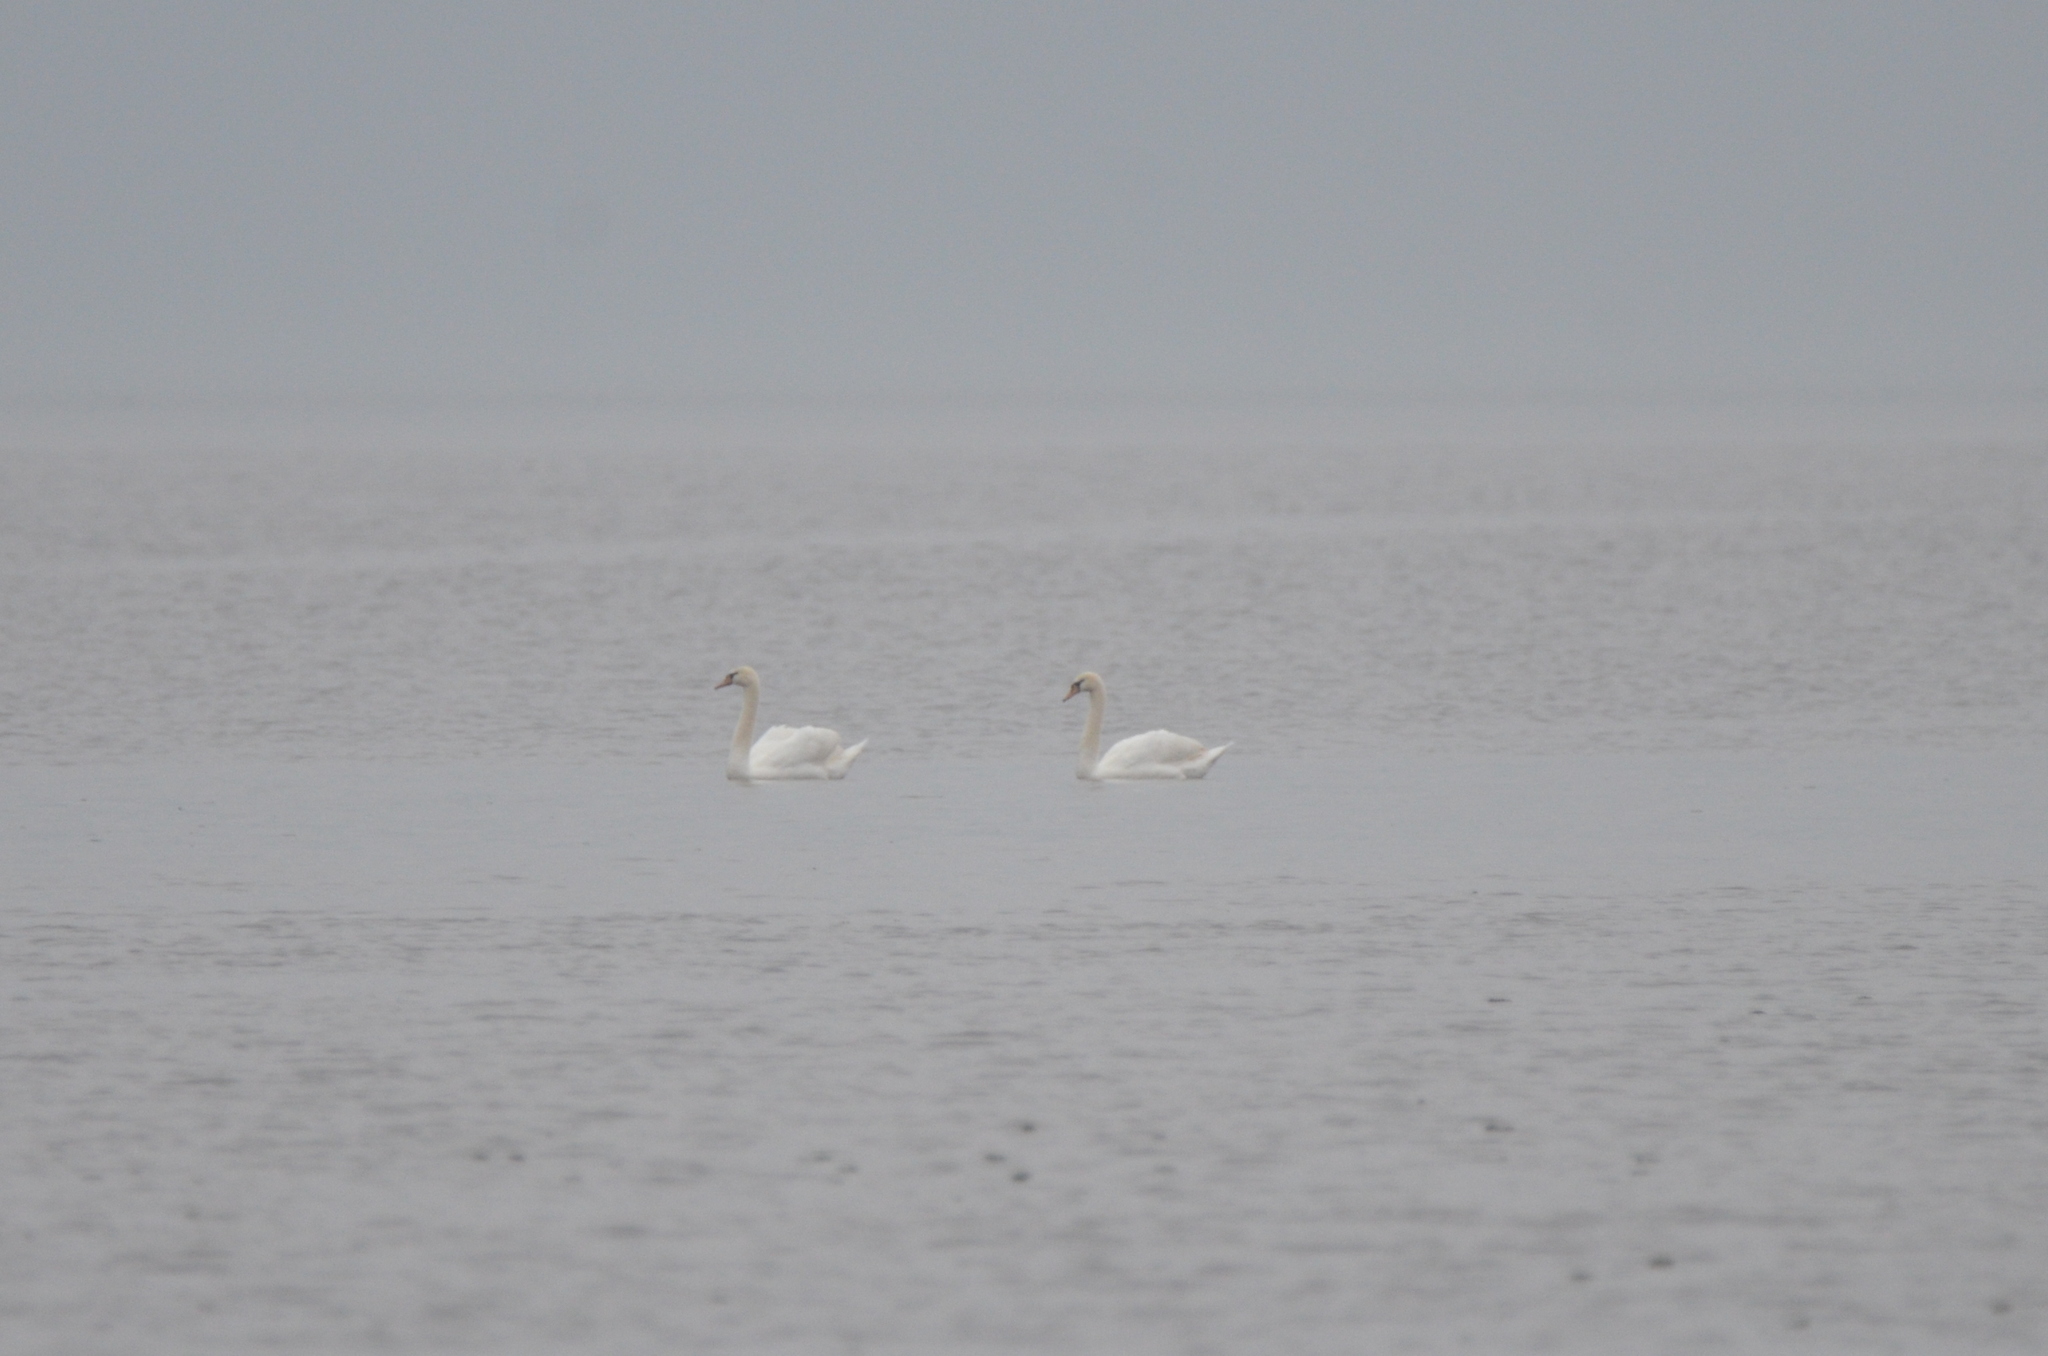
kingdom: Animalia
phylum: Chordata
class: Aves
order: Anseriformes
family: Anatidae
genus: Cygnus
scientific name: Cygnus olor
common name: Mute swan
